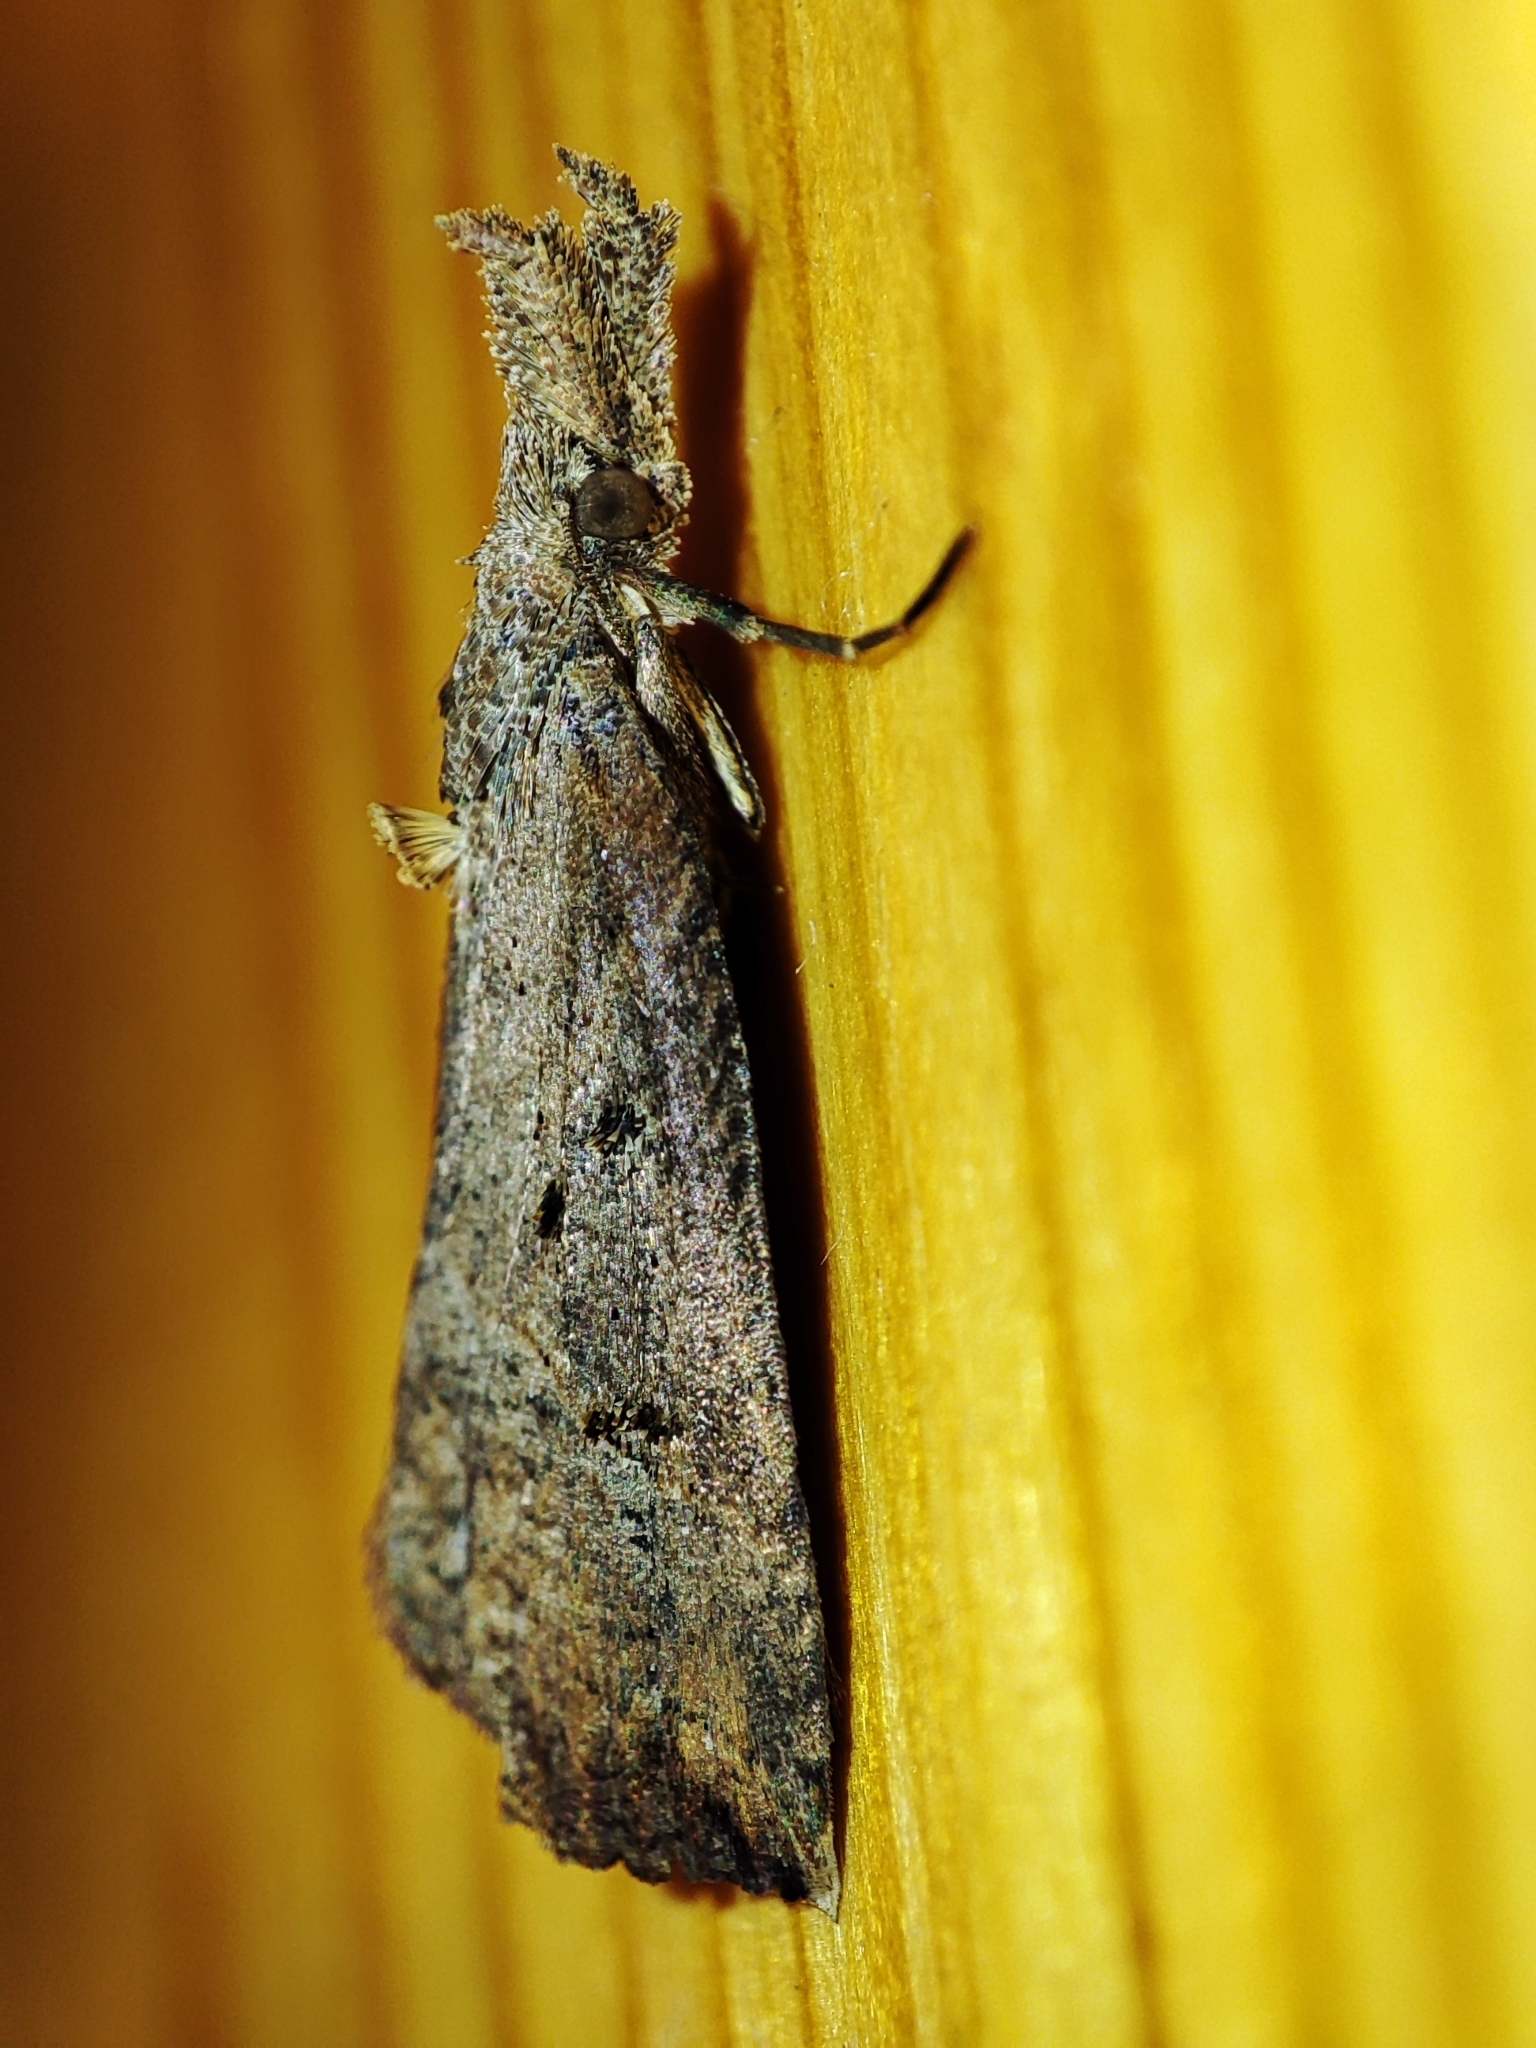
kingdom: Animalia
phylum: Arthropoda
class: Insecta
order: Lepidoptera
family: Erebidae
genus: Hypena
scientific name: Hypena rostralis
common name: Buttoned snout
